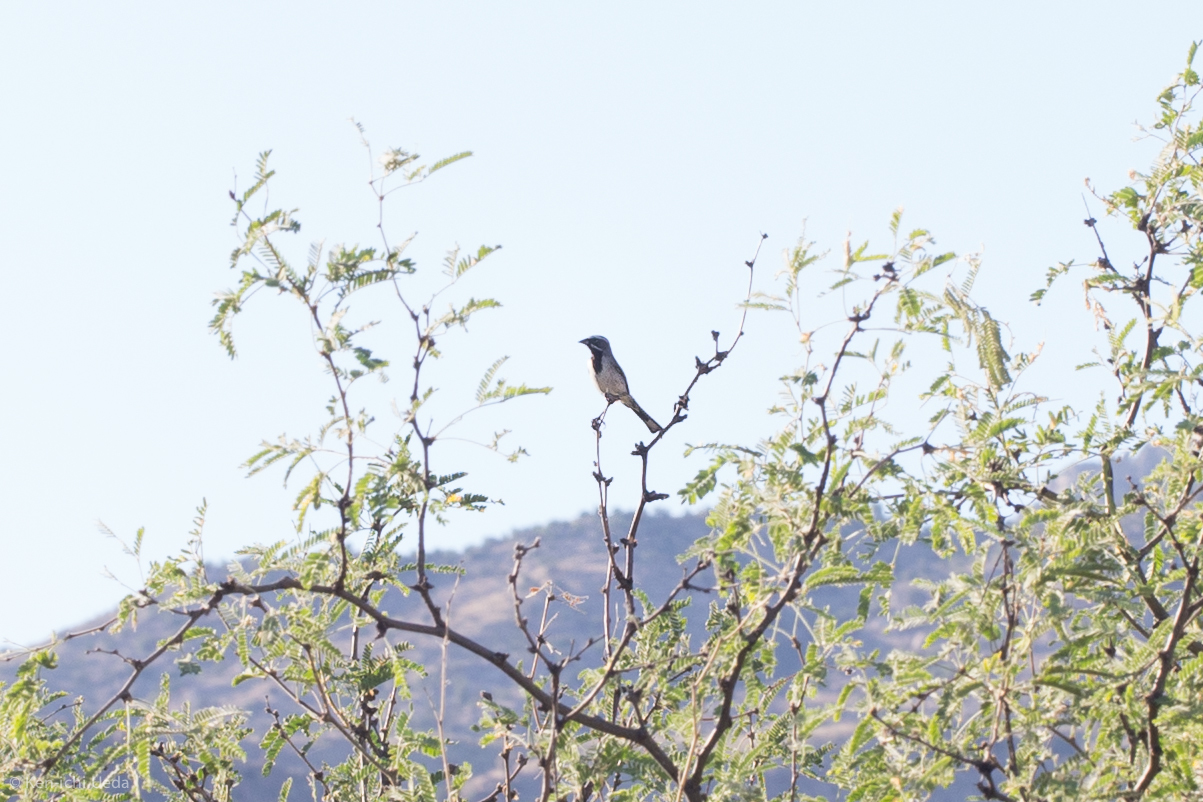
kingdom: Animalia
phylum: Chordata
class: Aves
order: Passeriformes
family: Passerellidae
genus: Amphispiza
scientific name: Amphispiza bilineata
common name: Black-throated sparrow
